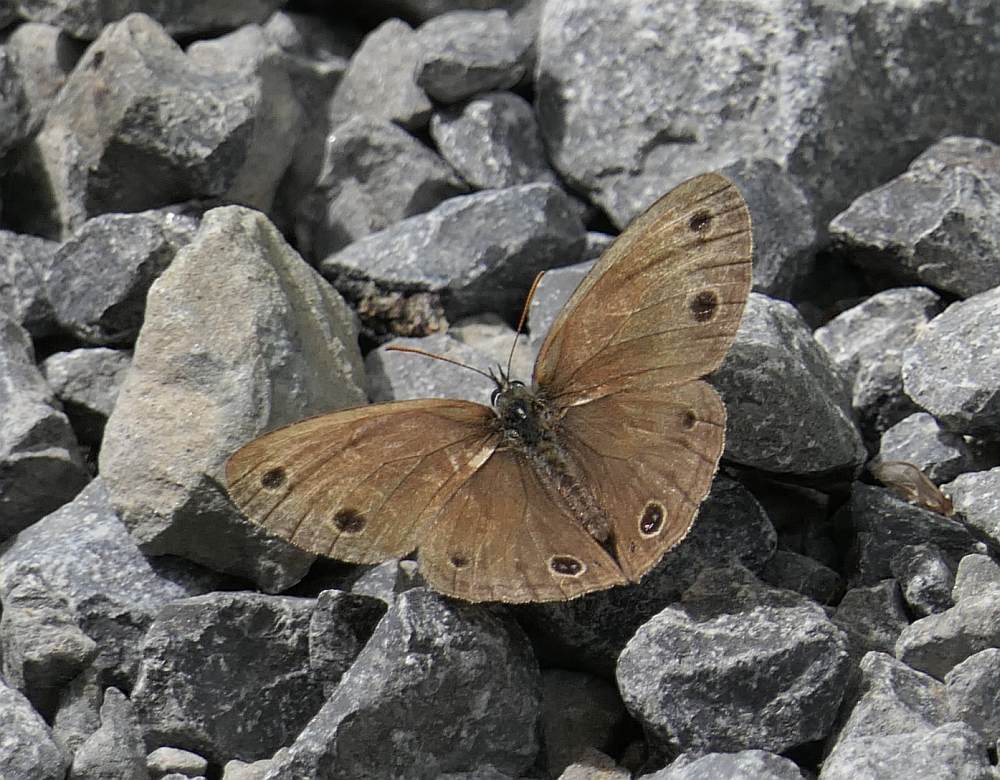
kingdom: Animalia
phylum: Arthropoda
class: Insecta
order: Lepidoptera
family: Nymphalidae
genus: Euptychia
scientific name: Euptychia cymela
